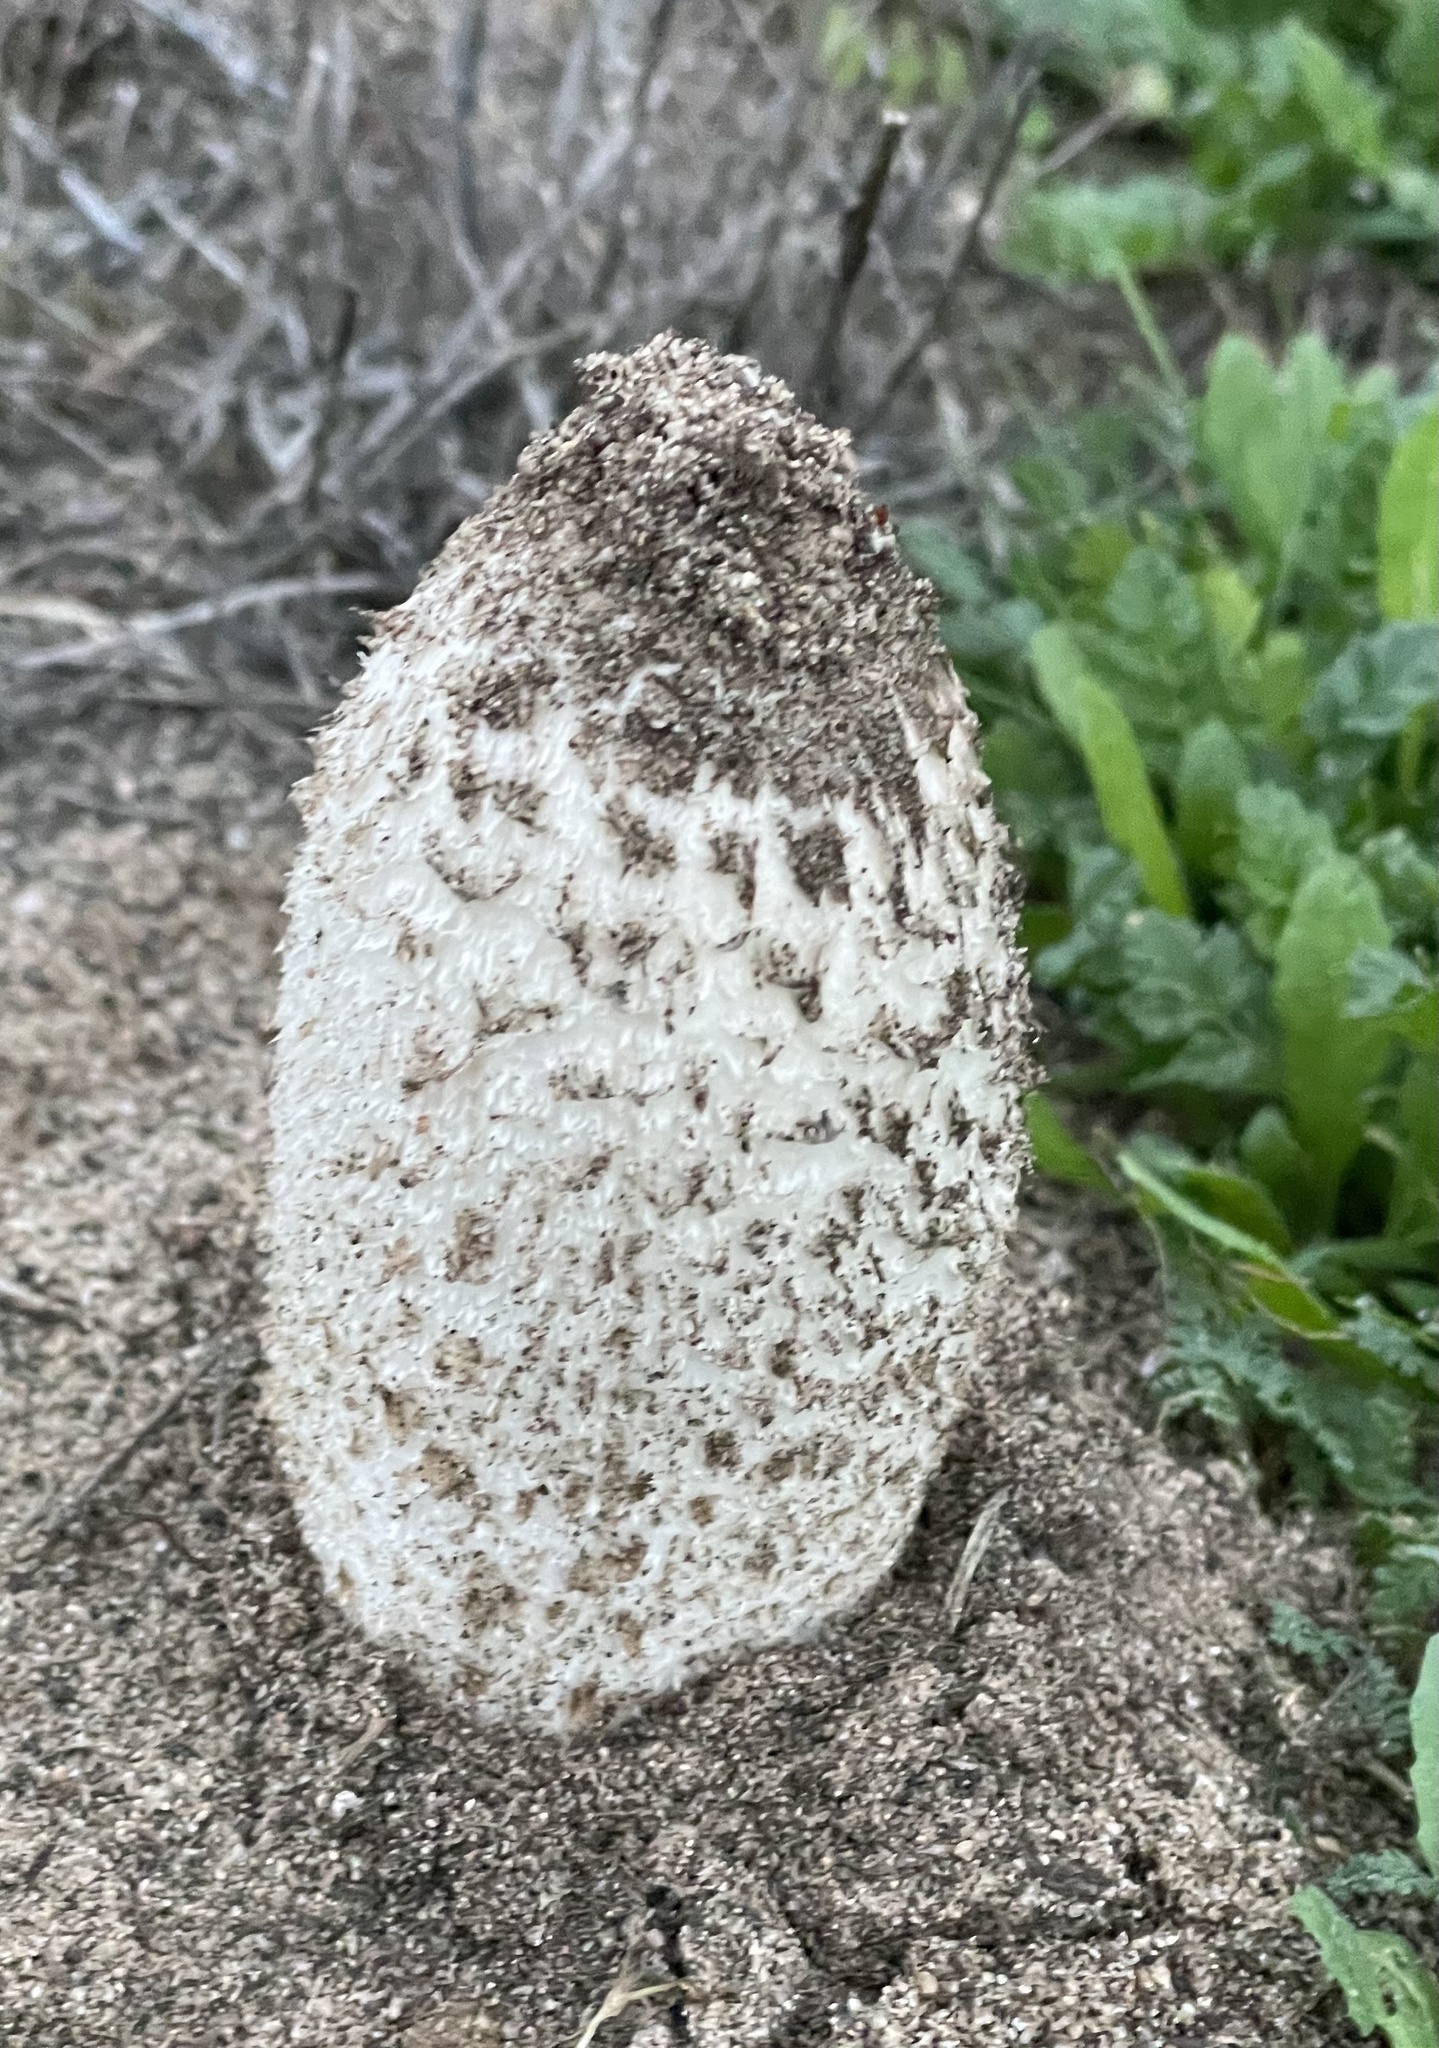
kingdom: Fungi
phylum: Basidiomycota
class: Agaricomycetes
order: Agaricales
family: Agaricaceae
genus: Coprinus
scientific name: Coprinus comatus
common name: Lawyer's wig
